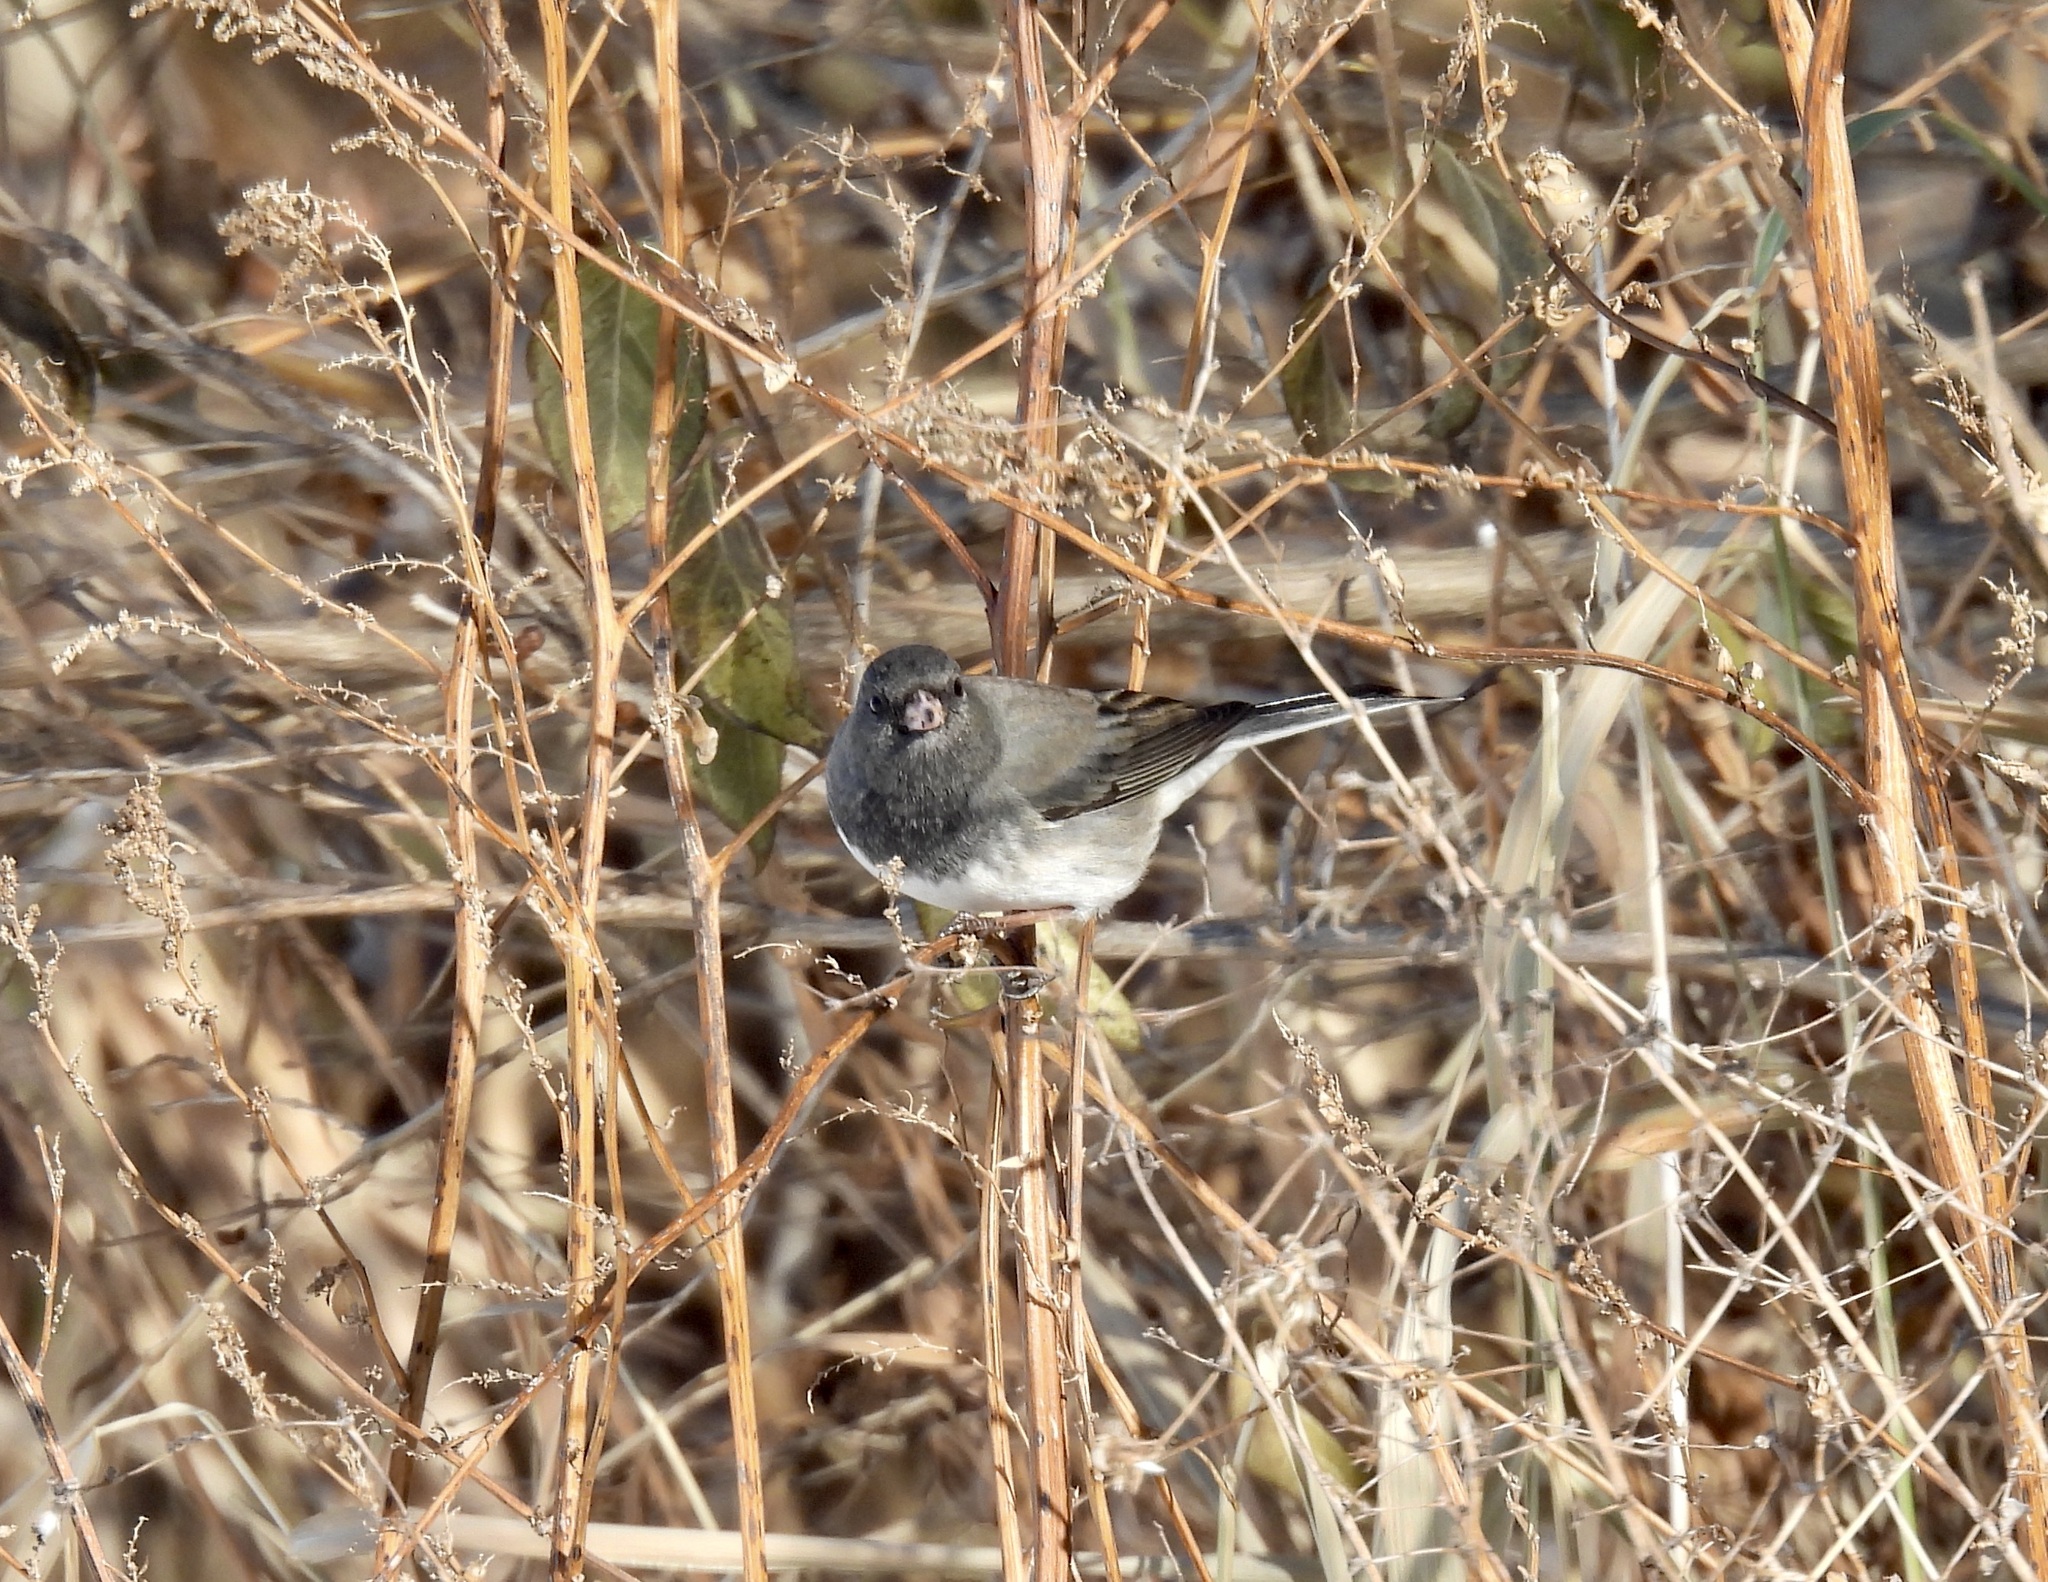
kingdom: Animalia
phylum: Chordata
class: Aves
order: Passeriformes
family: Passerellidae
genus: Junco
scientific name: Junco hyemalis
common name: Dark-eyed junco
